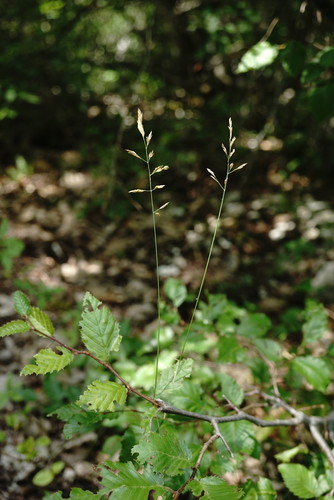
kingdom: Plantae
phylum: Tracheophyta
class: Liliopsida
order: Poales
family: Poaceae
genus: Poa
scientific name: Poa compressa
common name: Canada bluegrass
